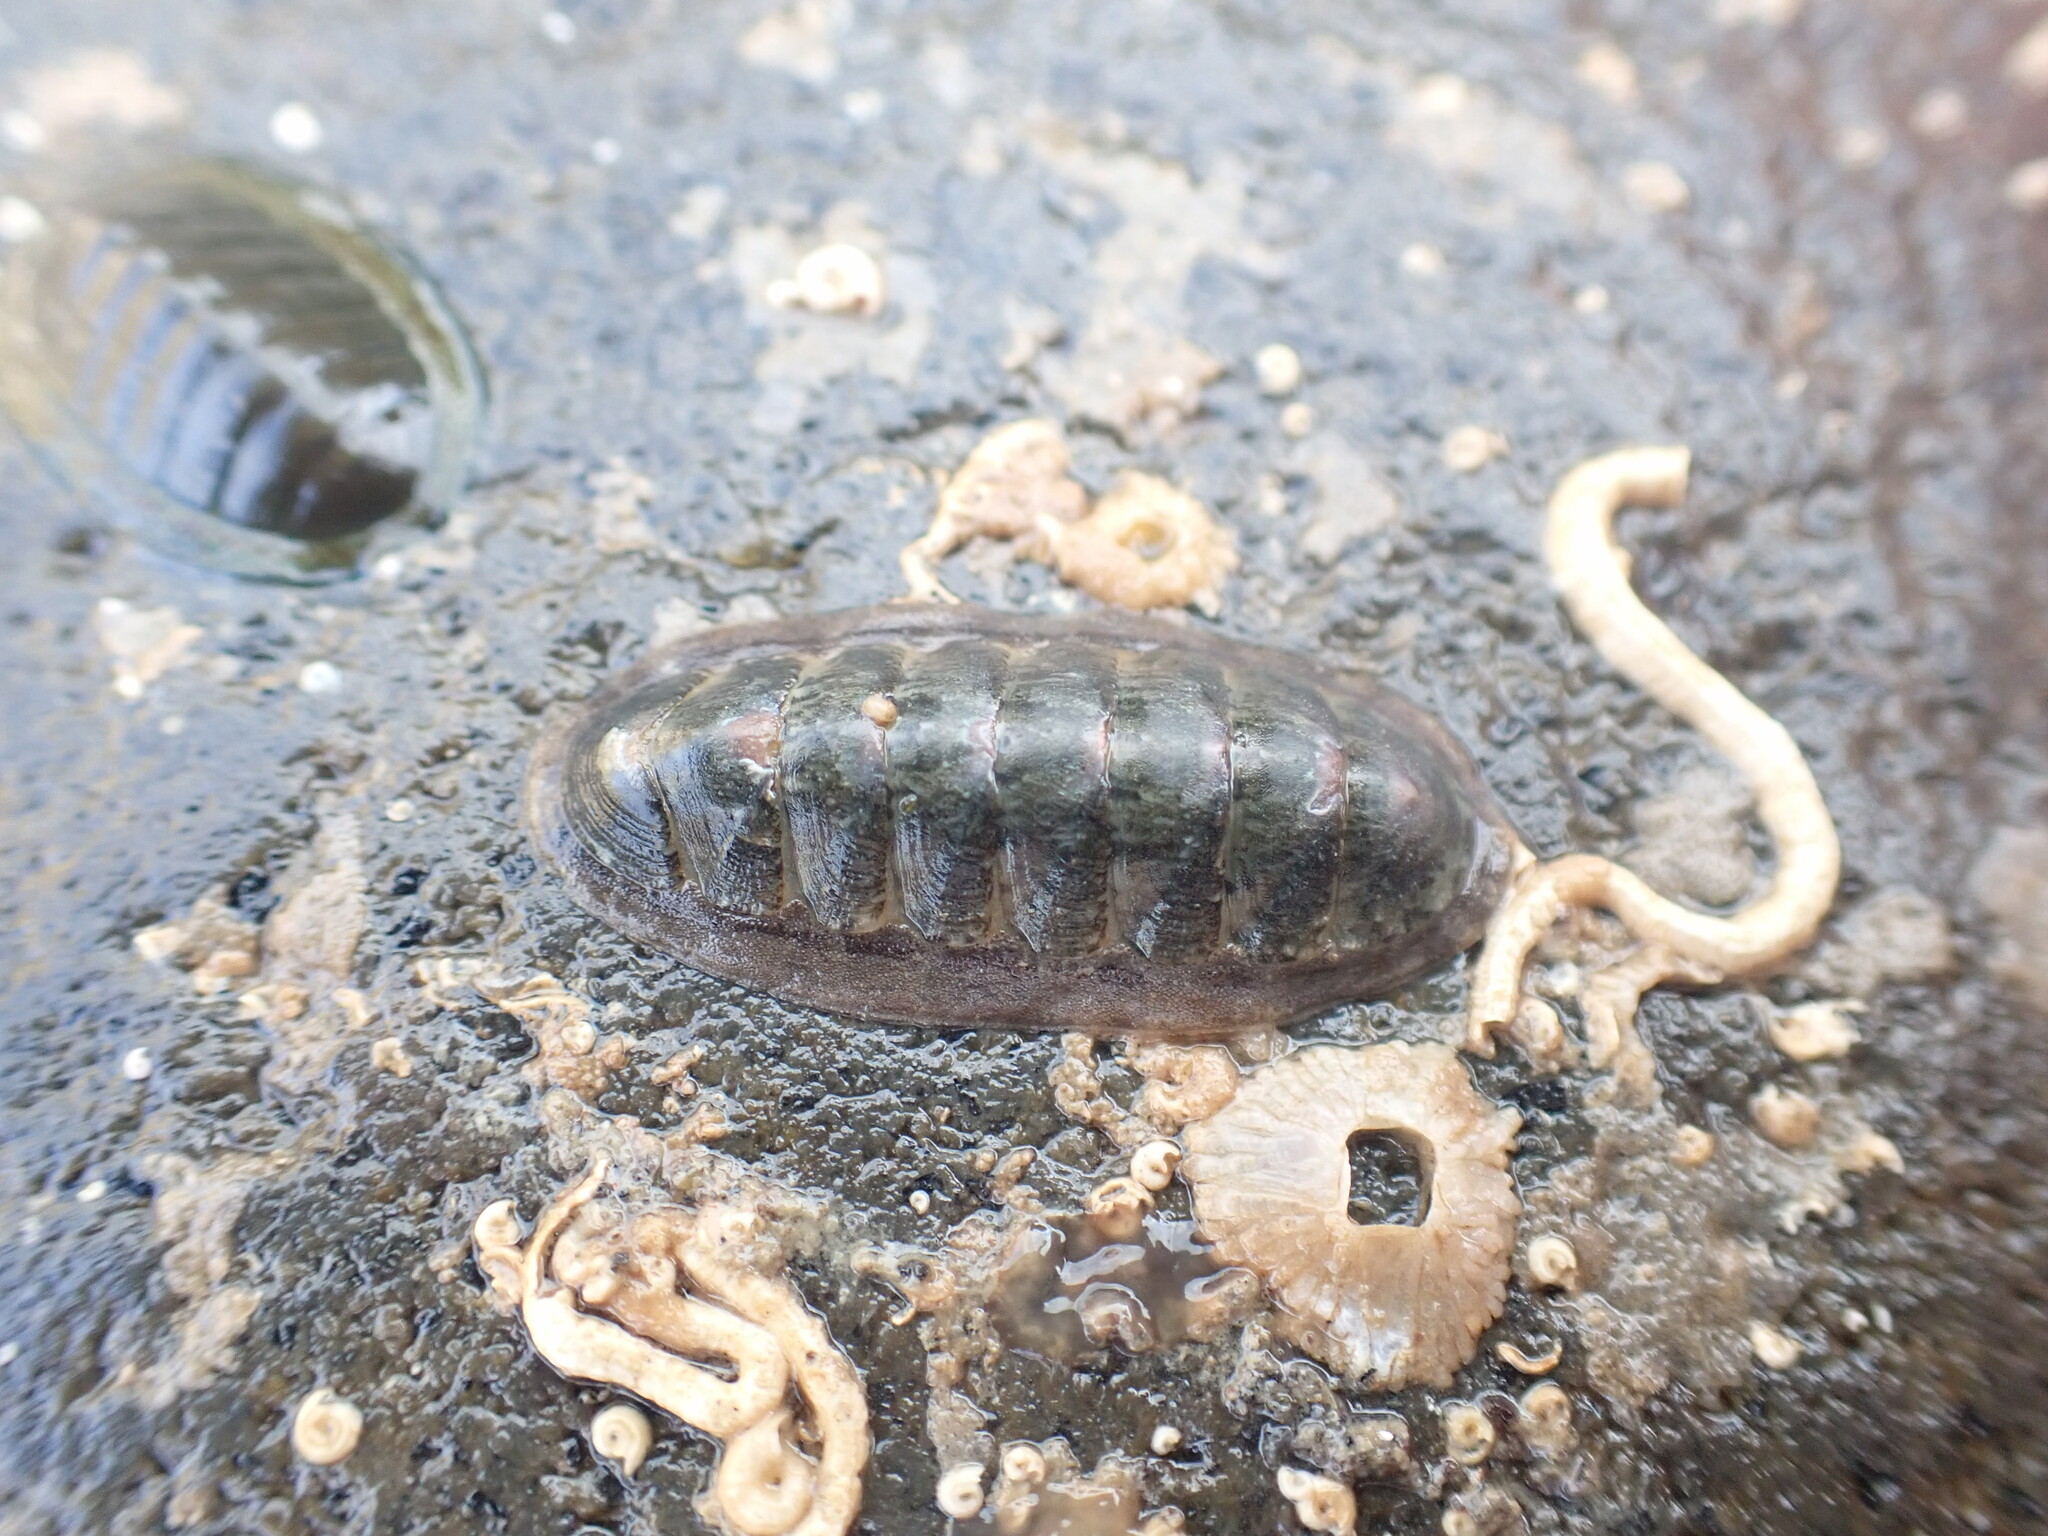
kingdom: Animalia
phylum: Mollusca
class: Polyplacophora
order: Chitonida
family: Ischnochitonidae
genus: Ischnochiton
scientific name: Ischnochiton maorianus
